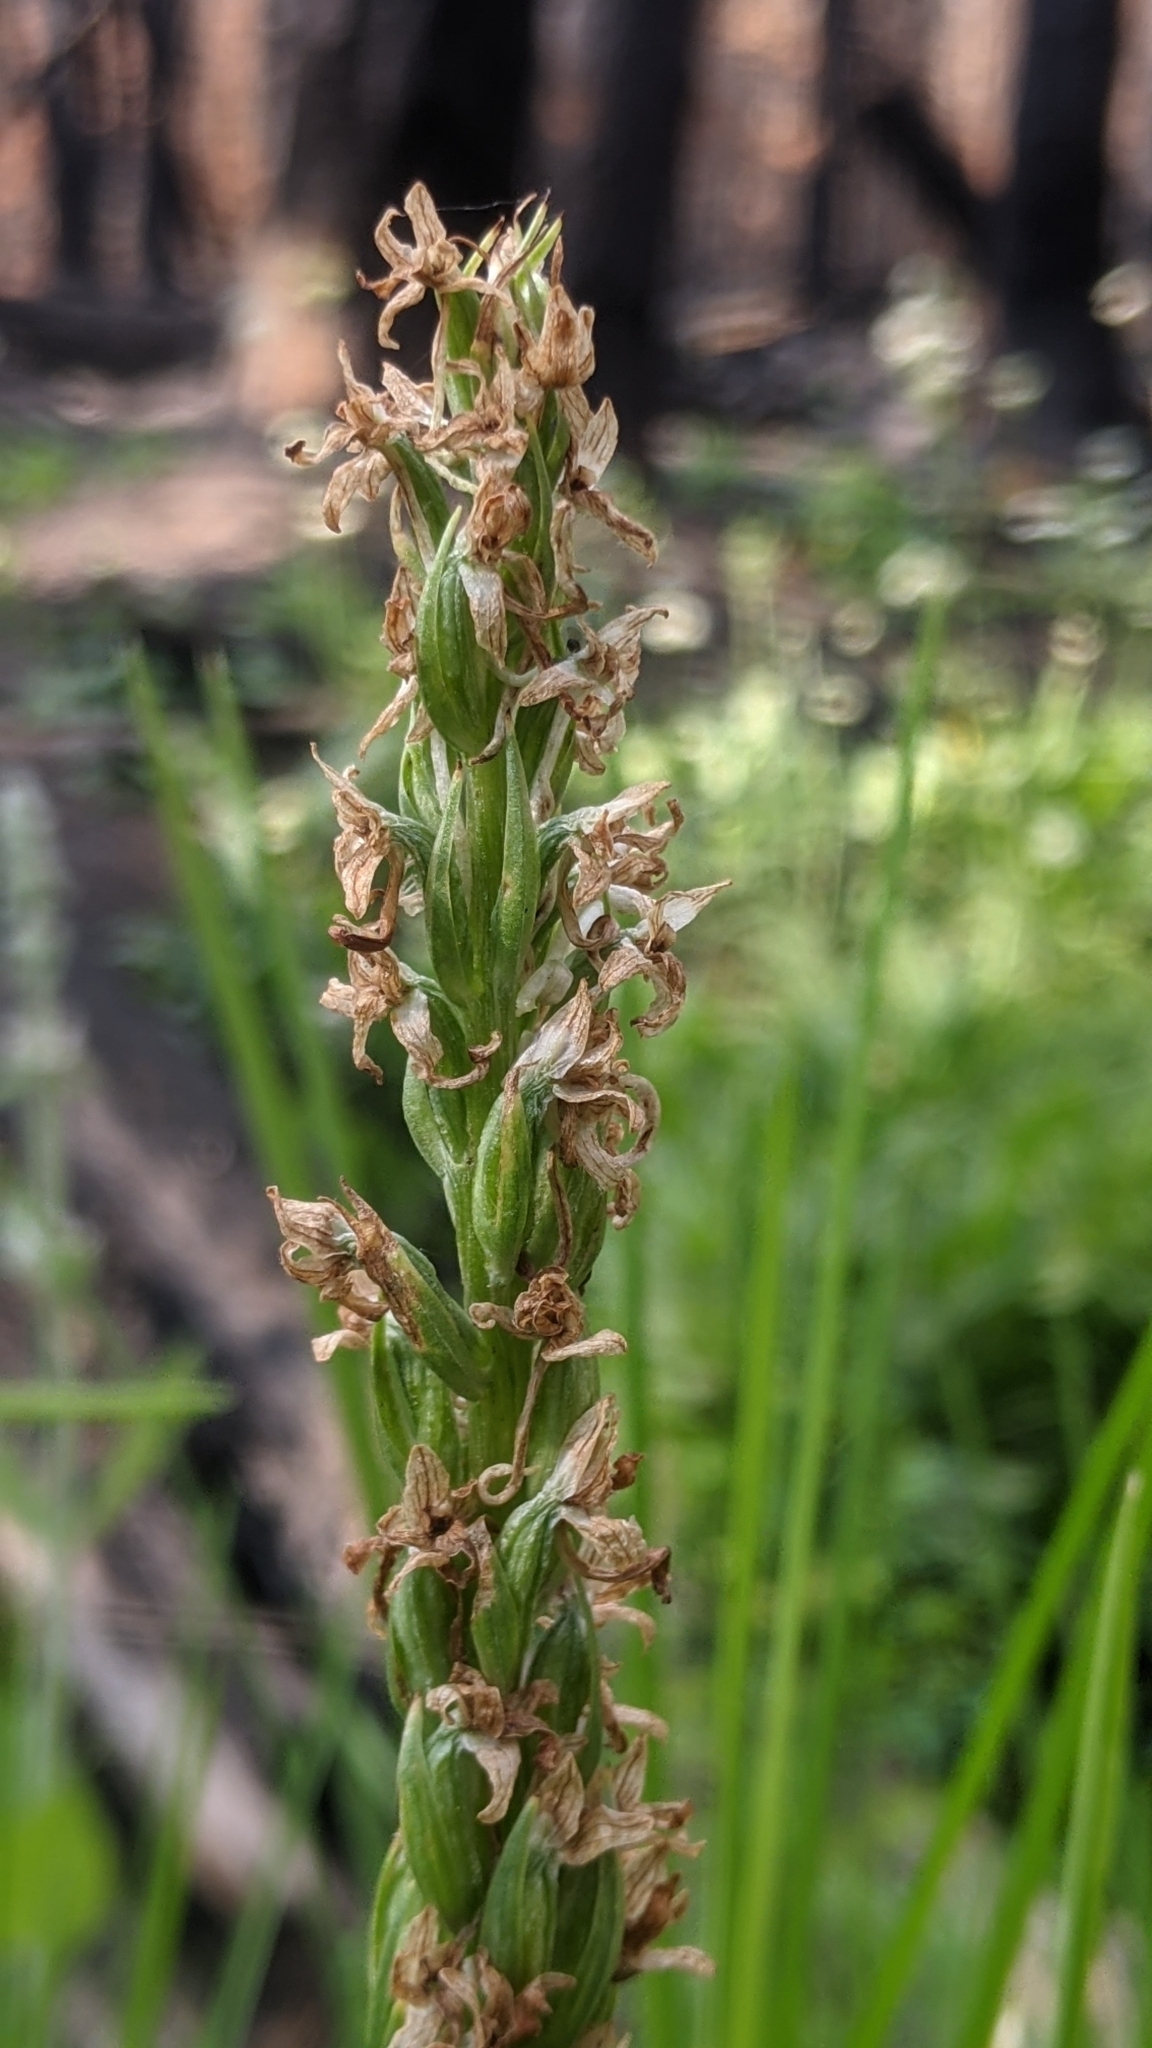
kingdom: Plantae
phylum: Tracheophyta
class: Liliopsida
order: Asparagales
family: Orchidaceae
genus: Platanthera
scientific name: Platanthera dilatata
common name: Bog candles
